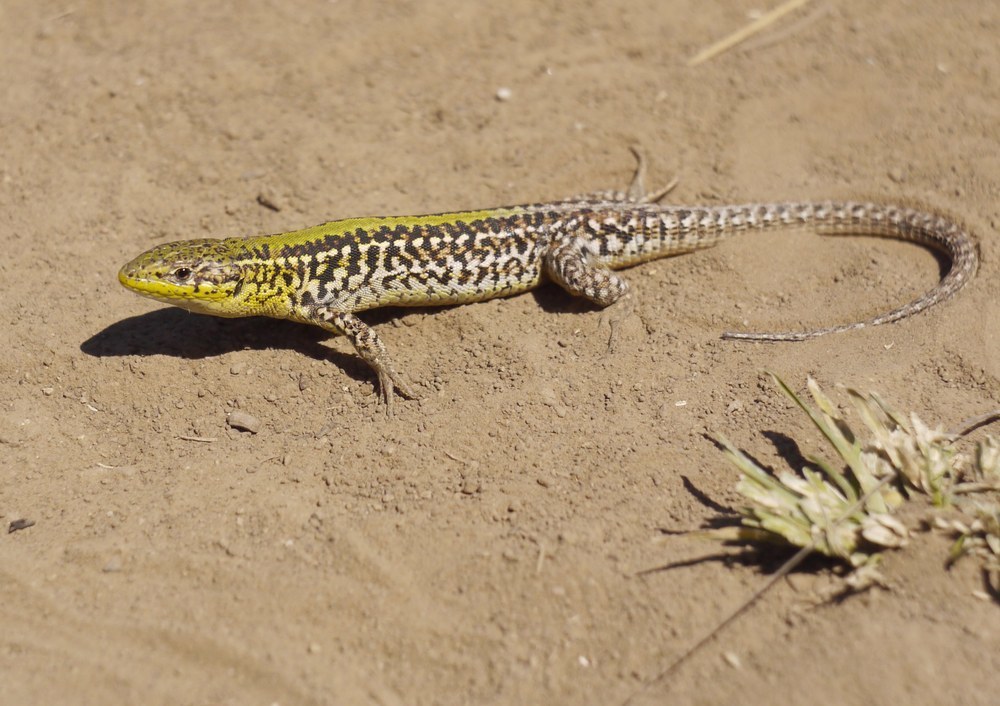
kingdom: Animalia
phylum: Chordata
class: Squamata
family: Lacertidae
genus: Podarcis
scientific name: Podarcis tauricus
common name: Balkan wall lizard
